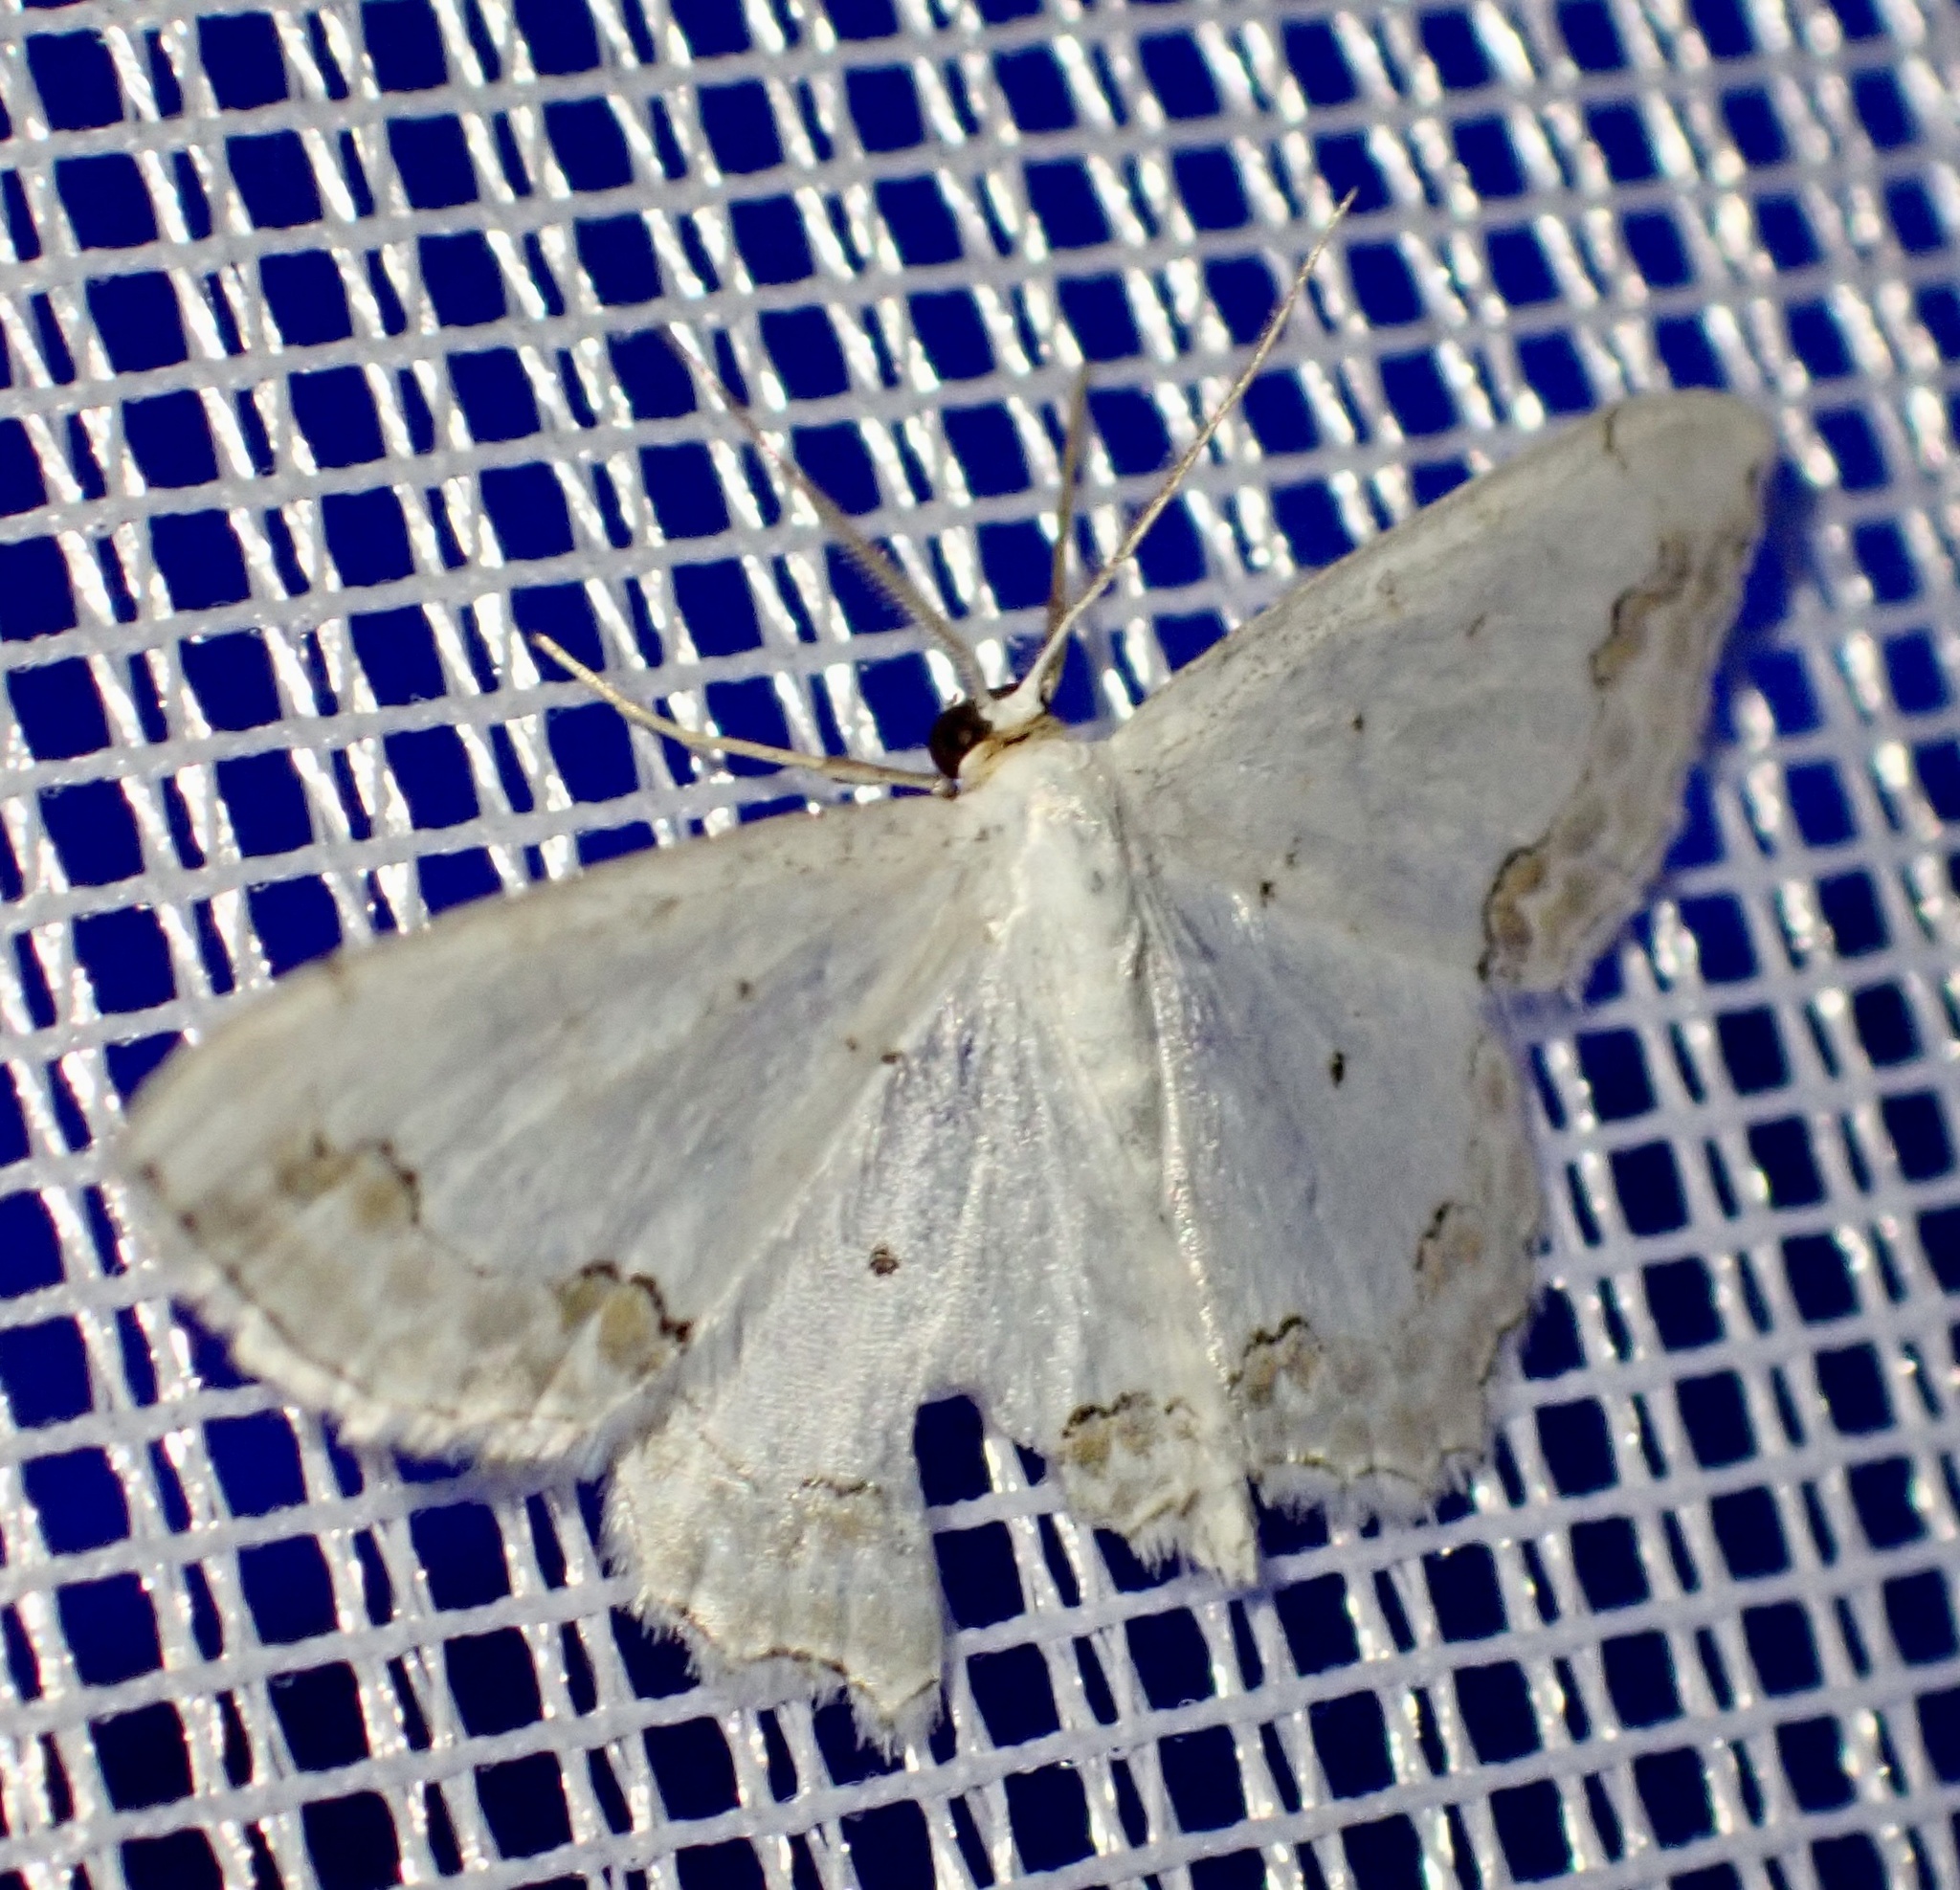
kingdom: Animalia
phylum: Arthropoda
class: Insecta
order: Lepidoptera
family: Geometridae
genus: Scopula
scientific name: Scopula ornata
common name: Lace border
